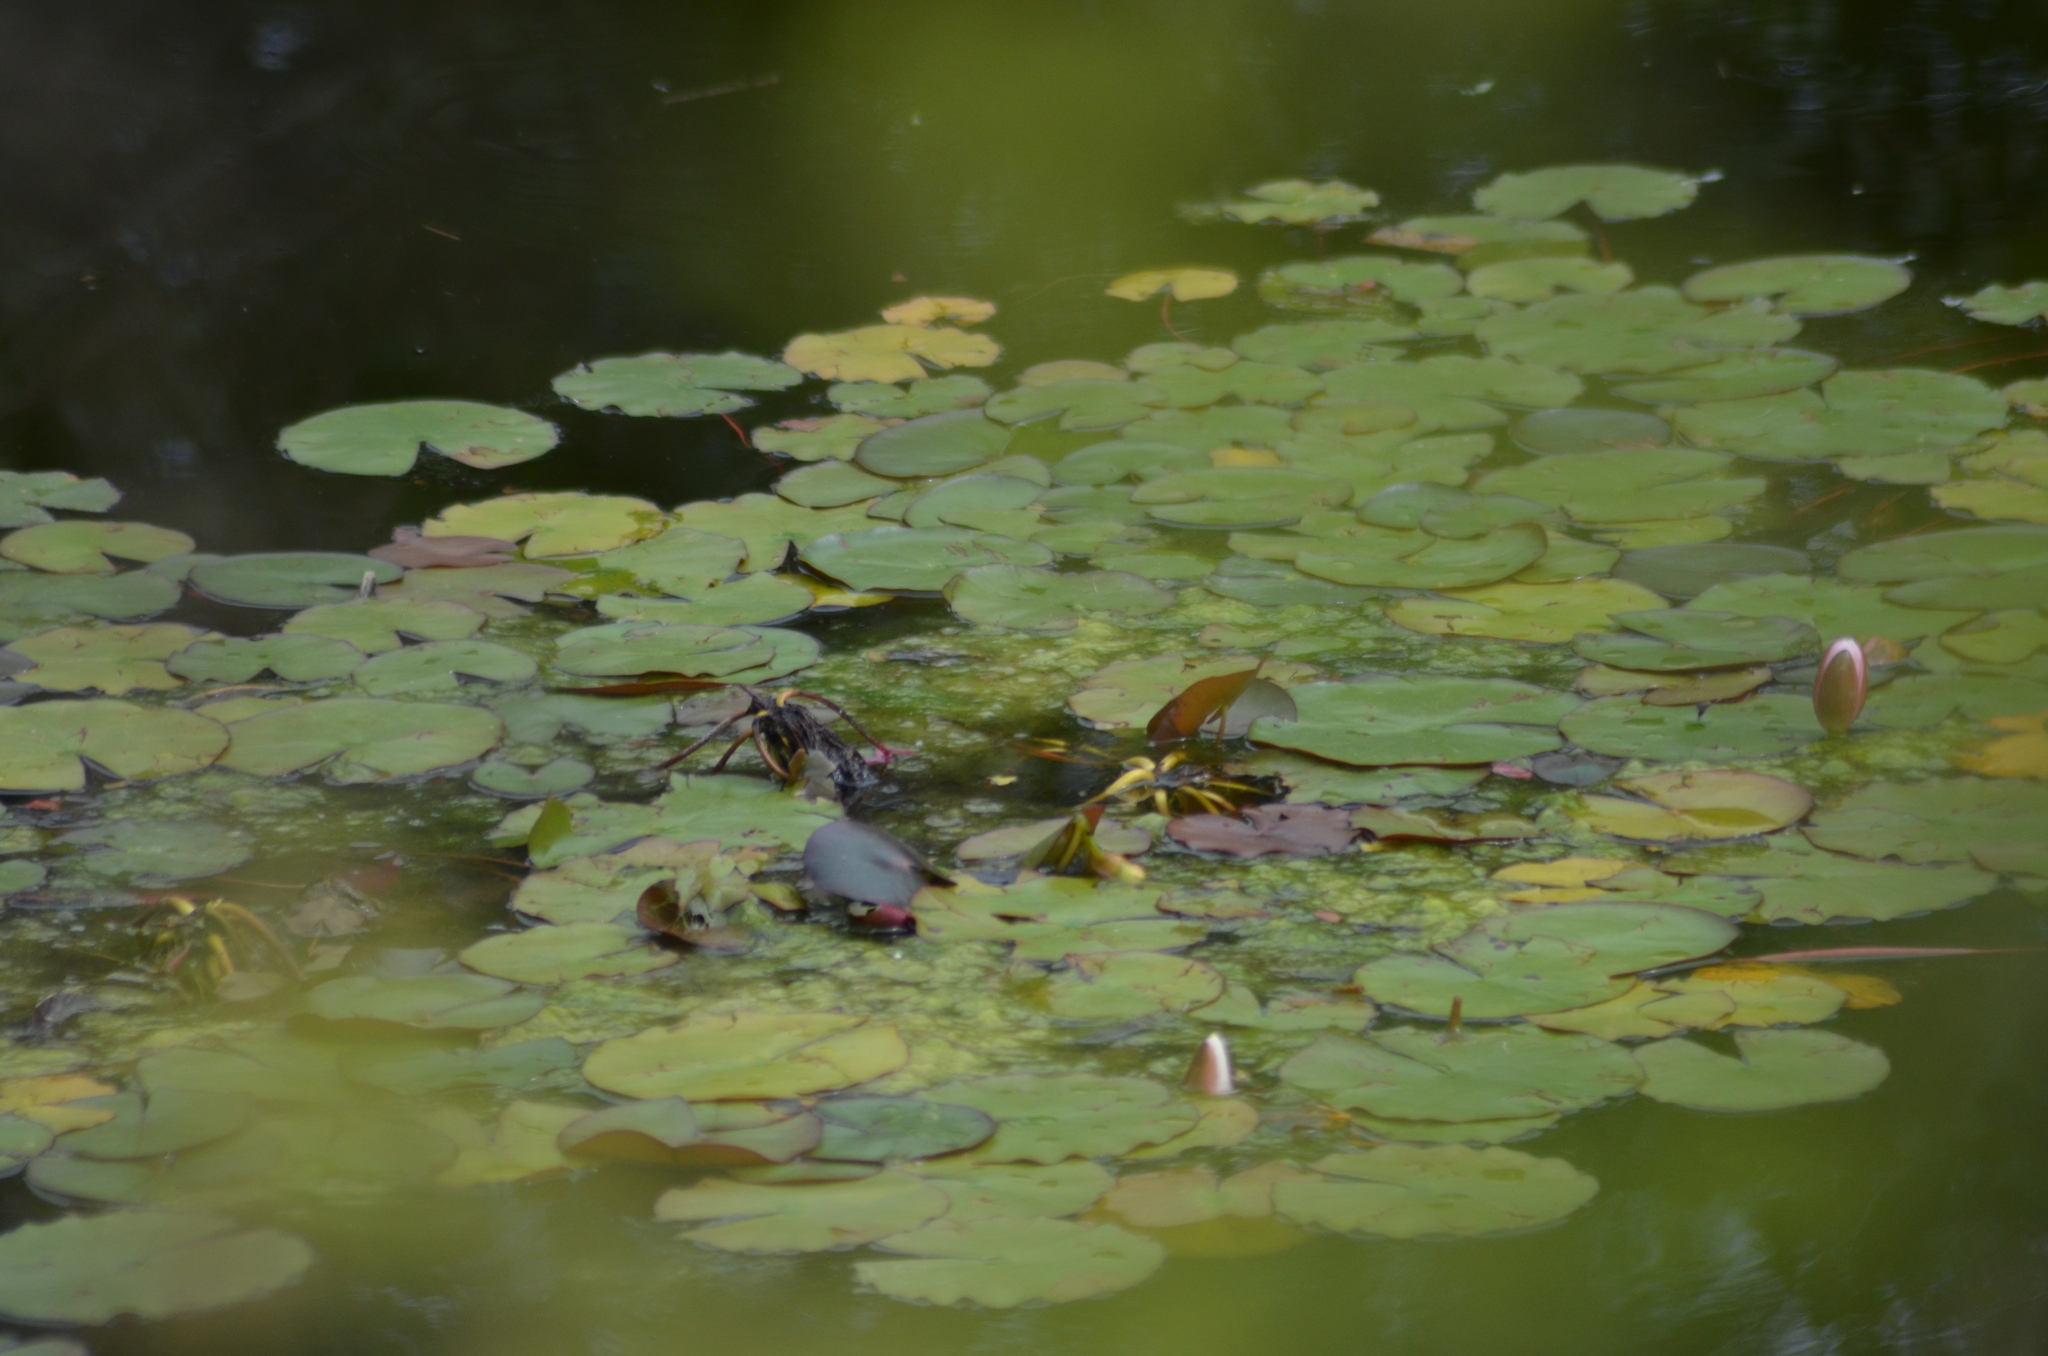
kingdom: Plantae
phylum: Tracheophyta
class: Magnoliopsida
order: Asterales
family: Menyanthaceae
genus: Nymphoides
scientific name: Nymphoides peltata
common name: Fringed water-lily
